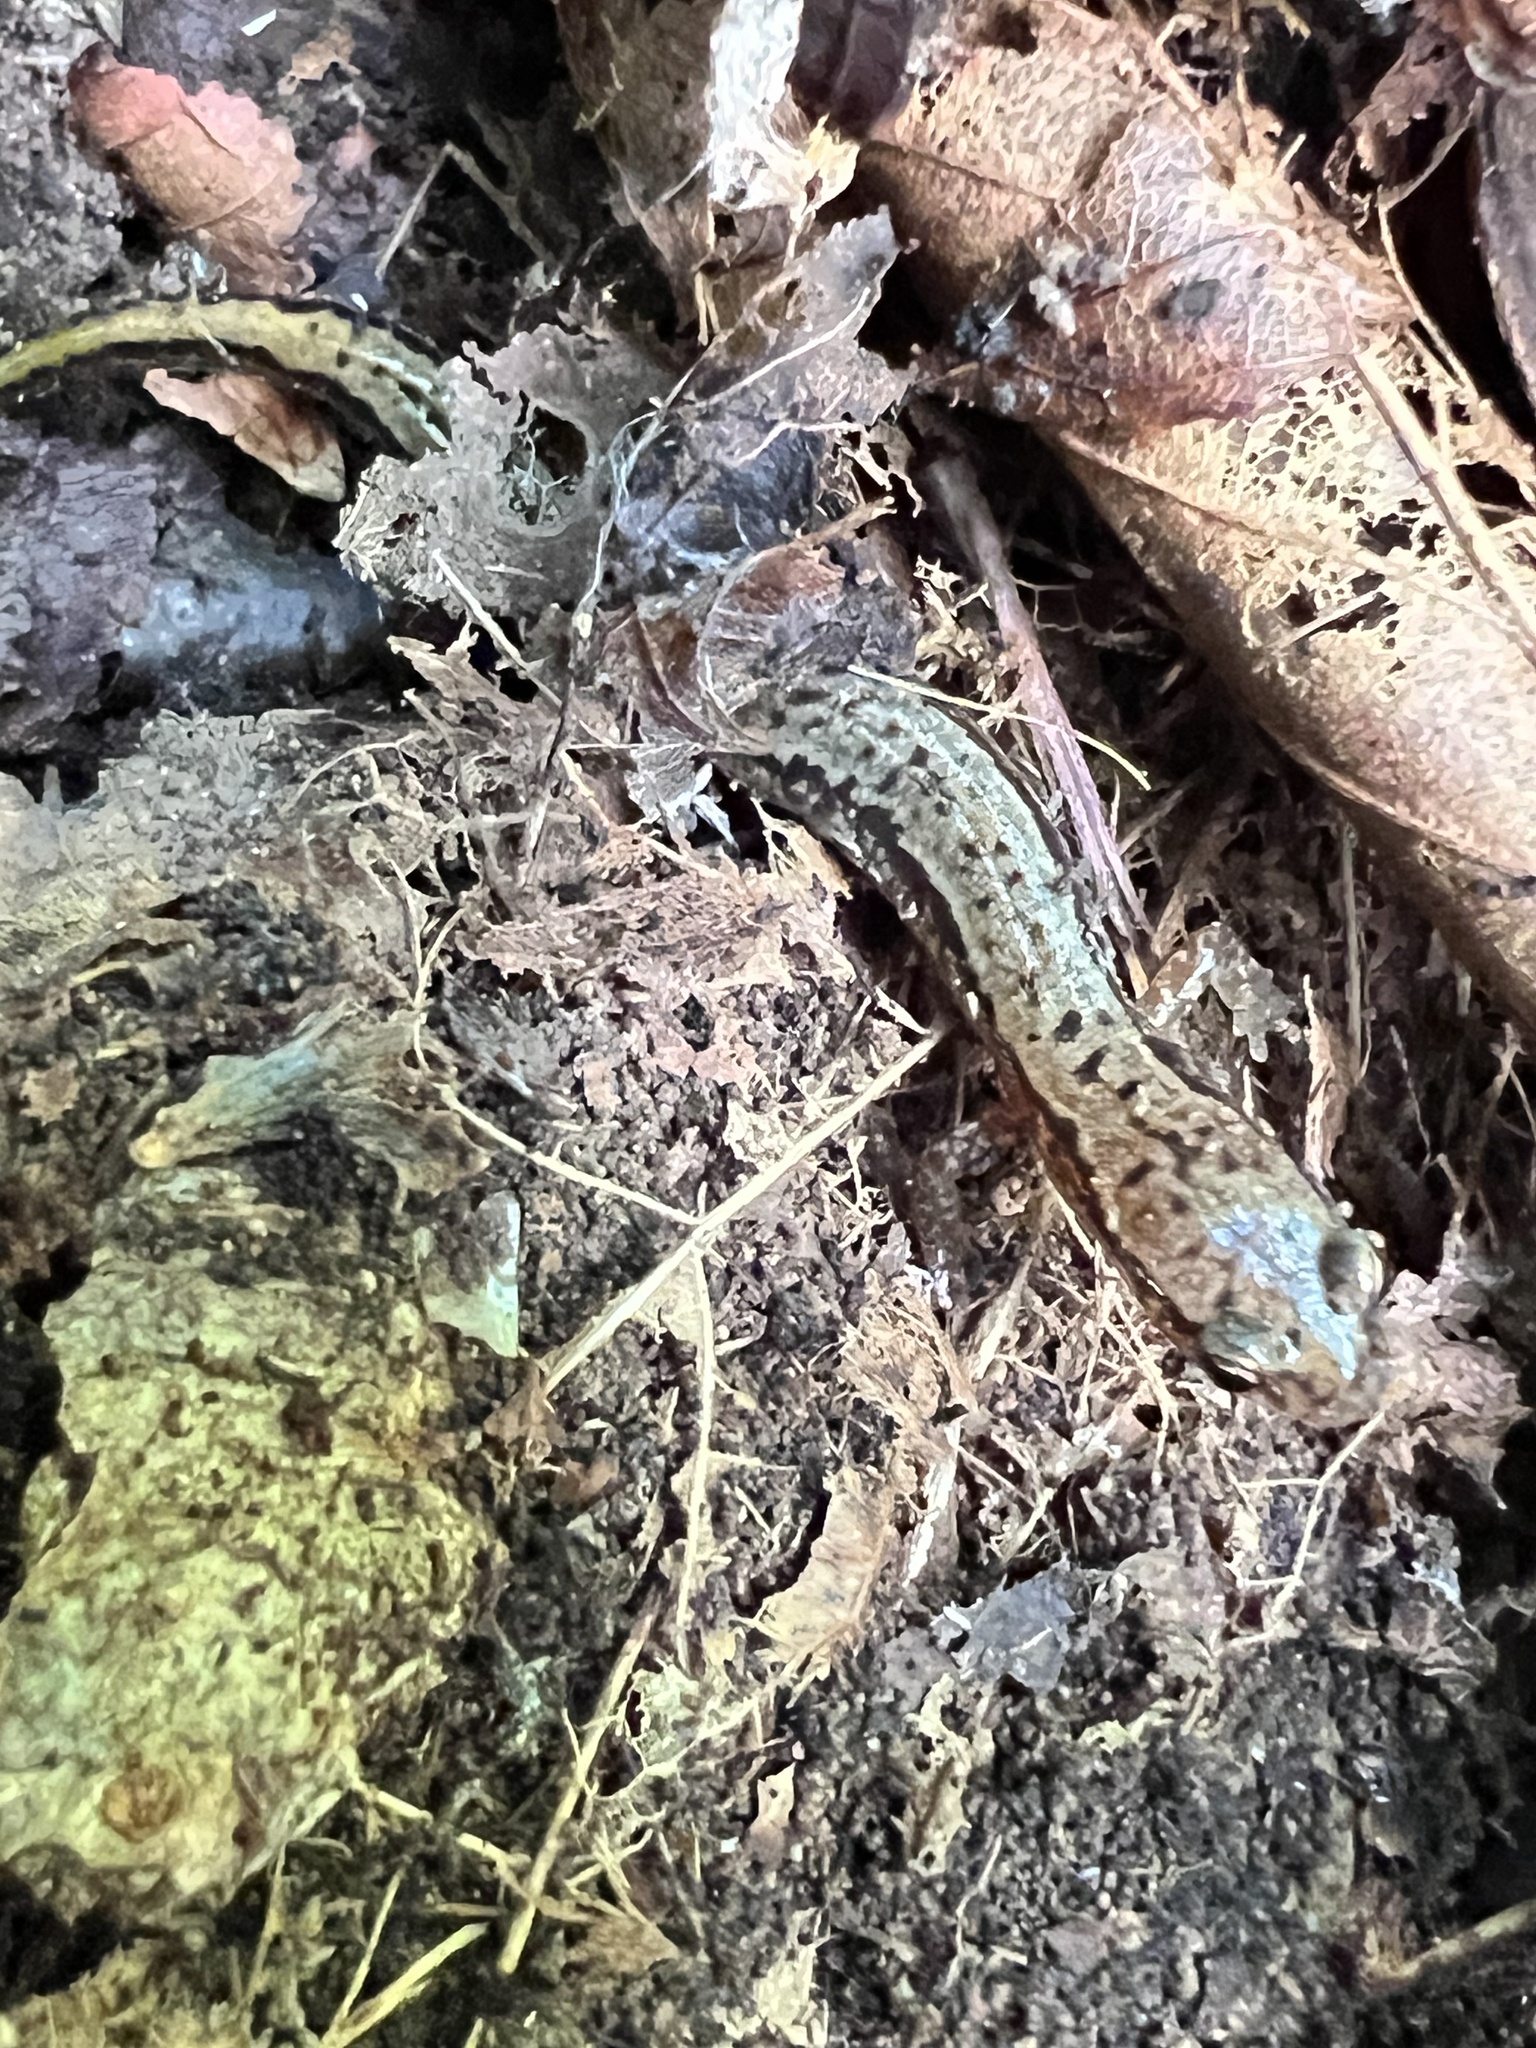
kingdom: Animalia
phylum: Chordata
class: Amphibia
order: Caudata
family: Plethodontidae
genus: Eurycea
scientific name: Eurycea bislineata
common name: Northern two-lined salamander
